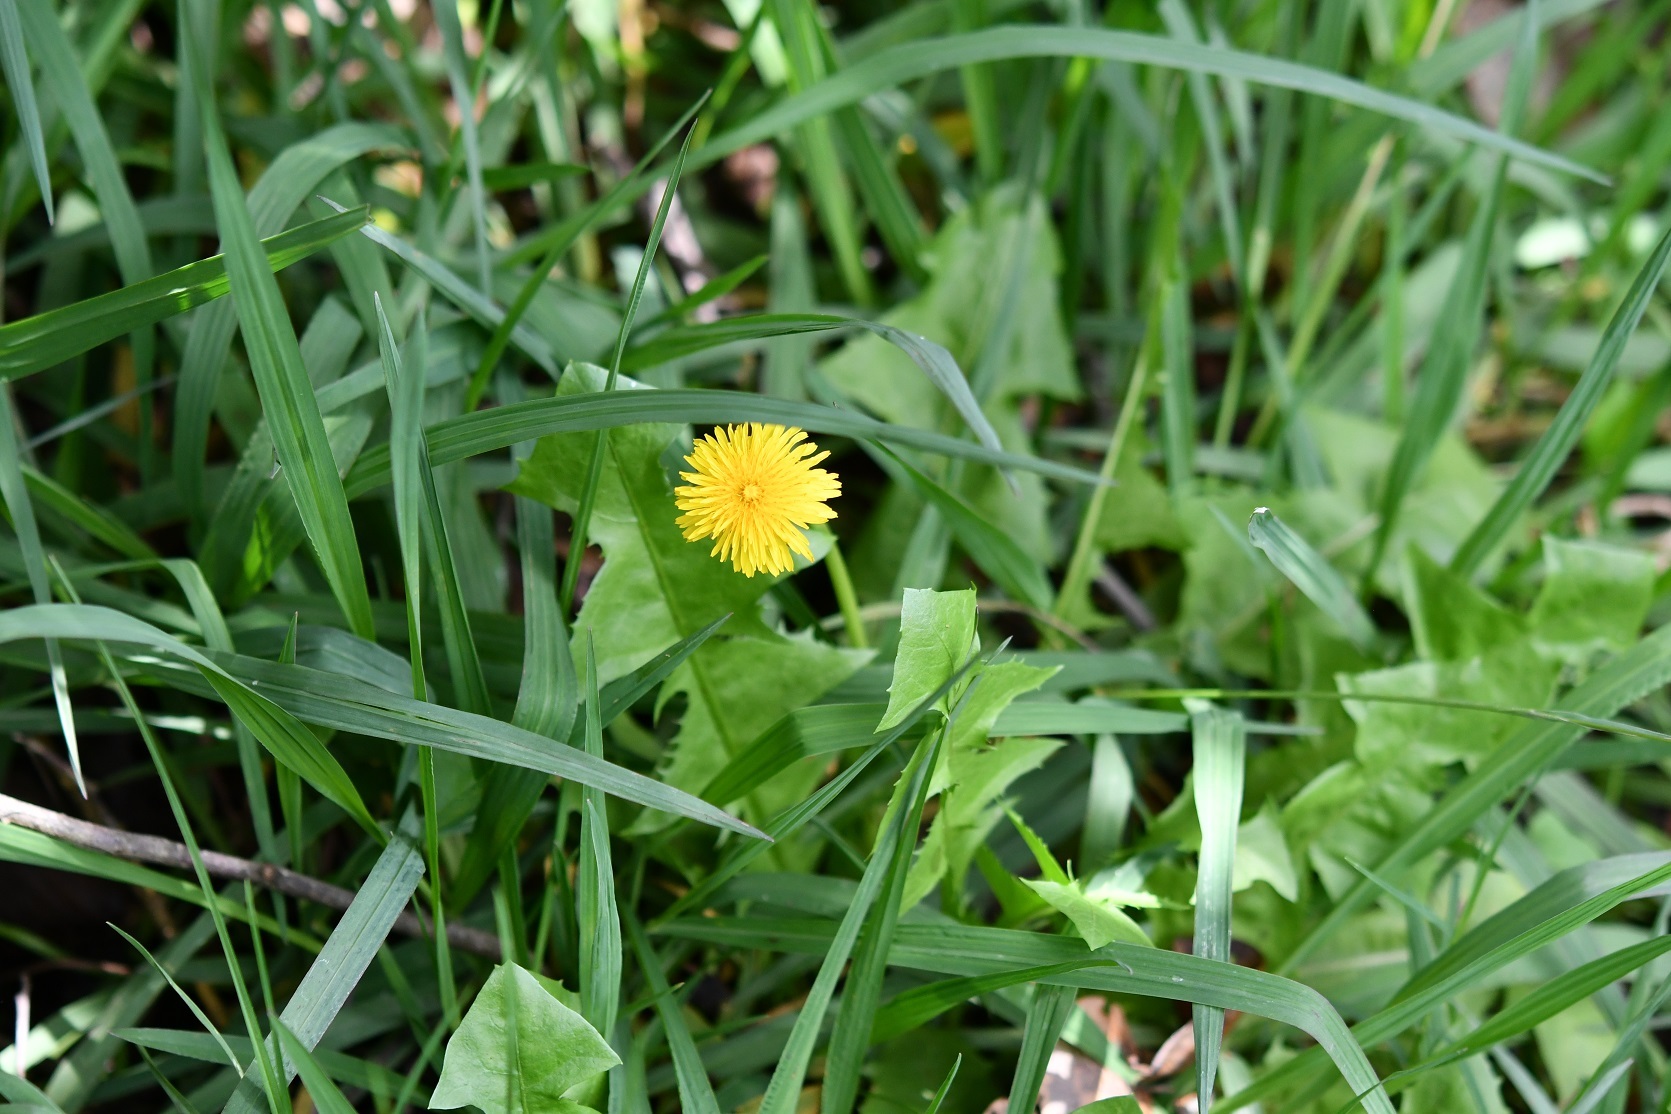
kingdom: Plantae
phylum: Tracheophyta
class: Magnoliopsida
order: Asterales
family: Asteraceae
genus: Taraxacum
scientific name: Taraxacum officinale
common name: Common dandelion
